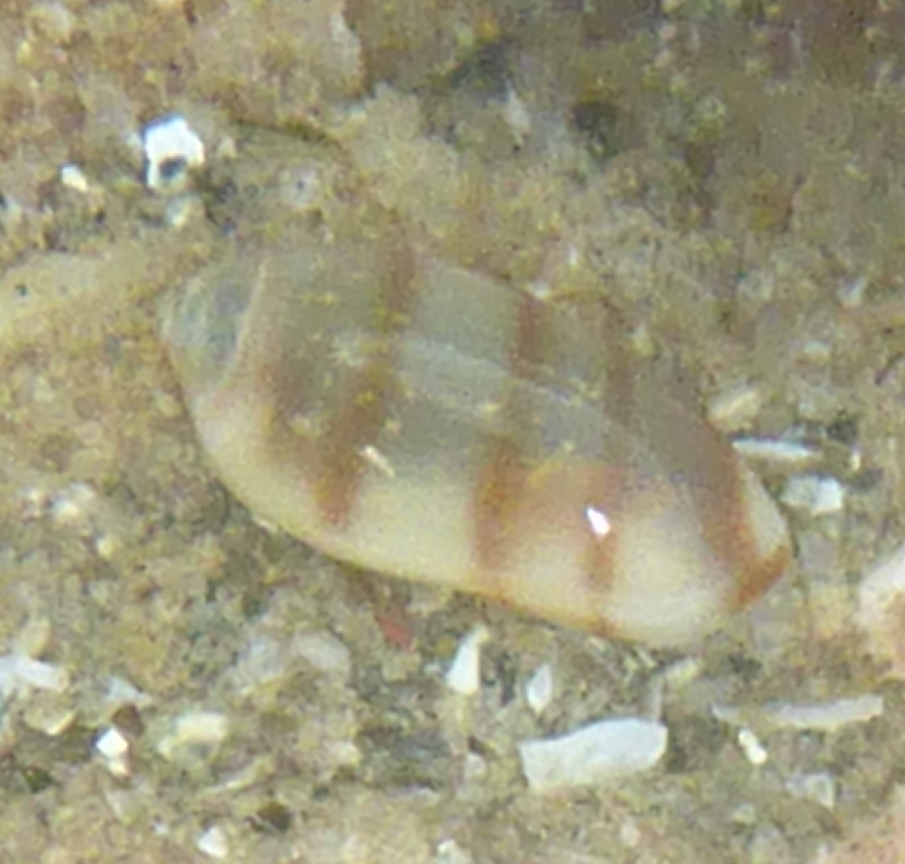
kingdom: Animalia
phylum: Mollusca
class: Gastropoda
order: Neogastropoda
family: Marginellidae
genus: Volvarina
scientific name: Volvarina taeniolata
